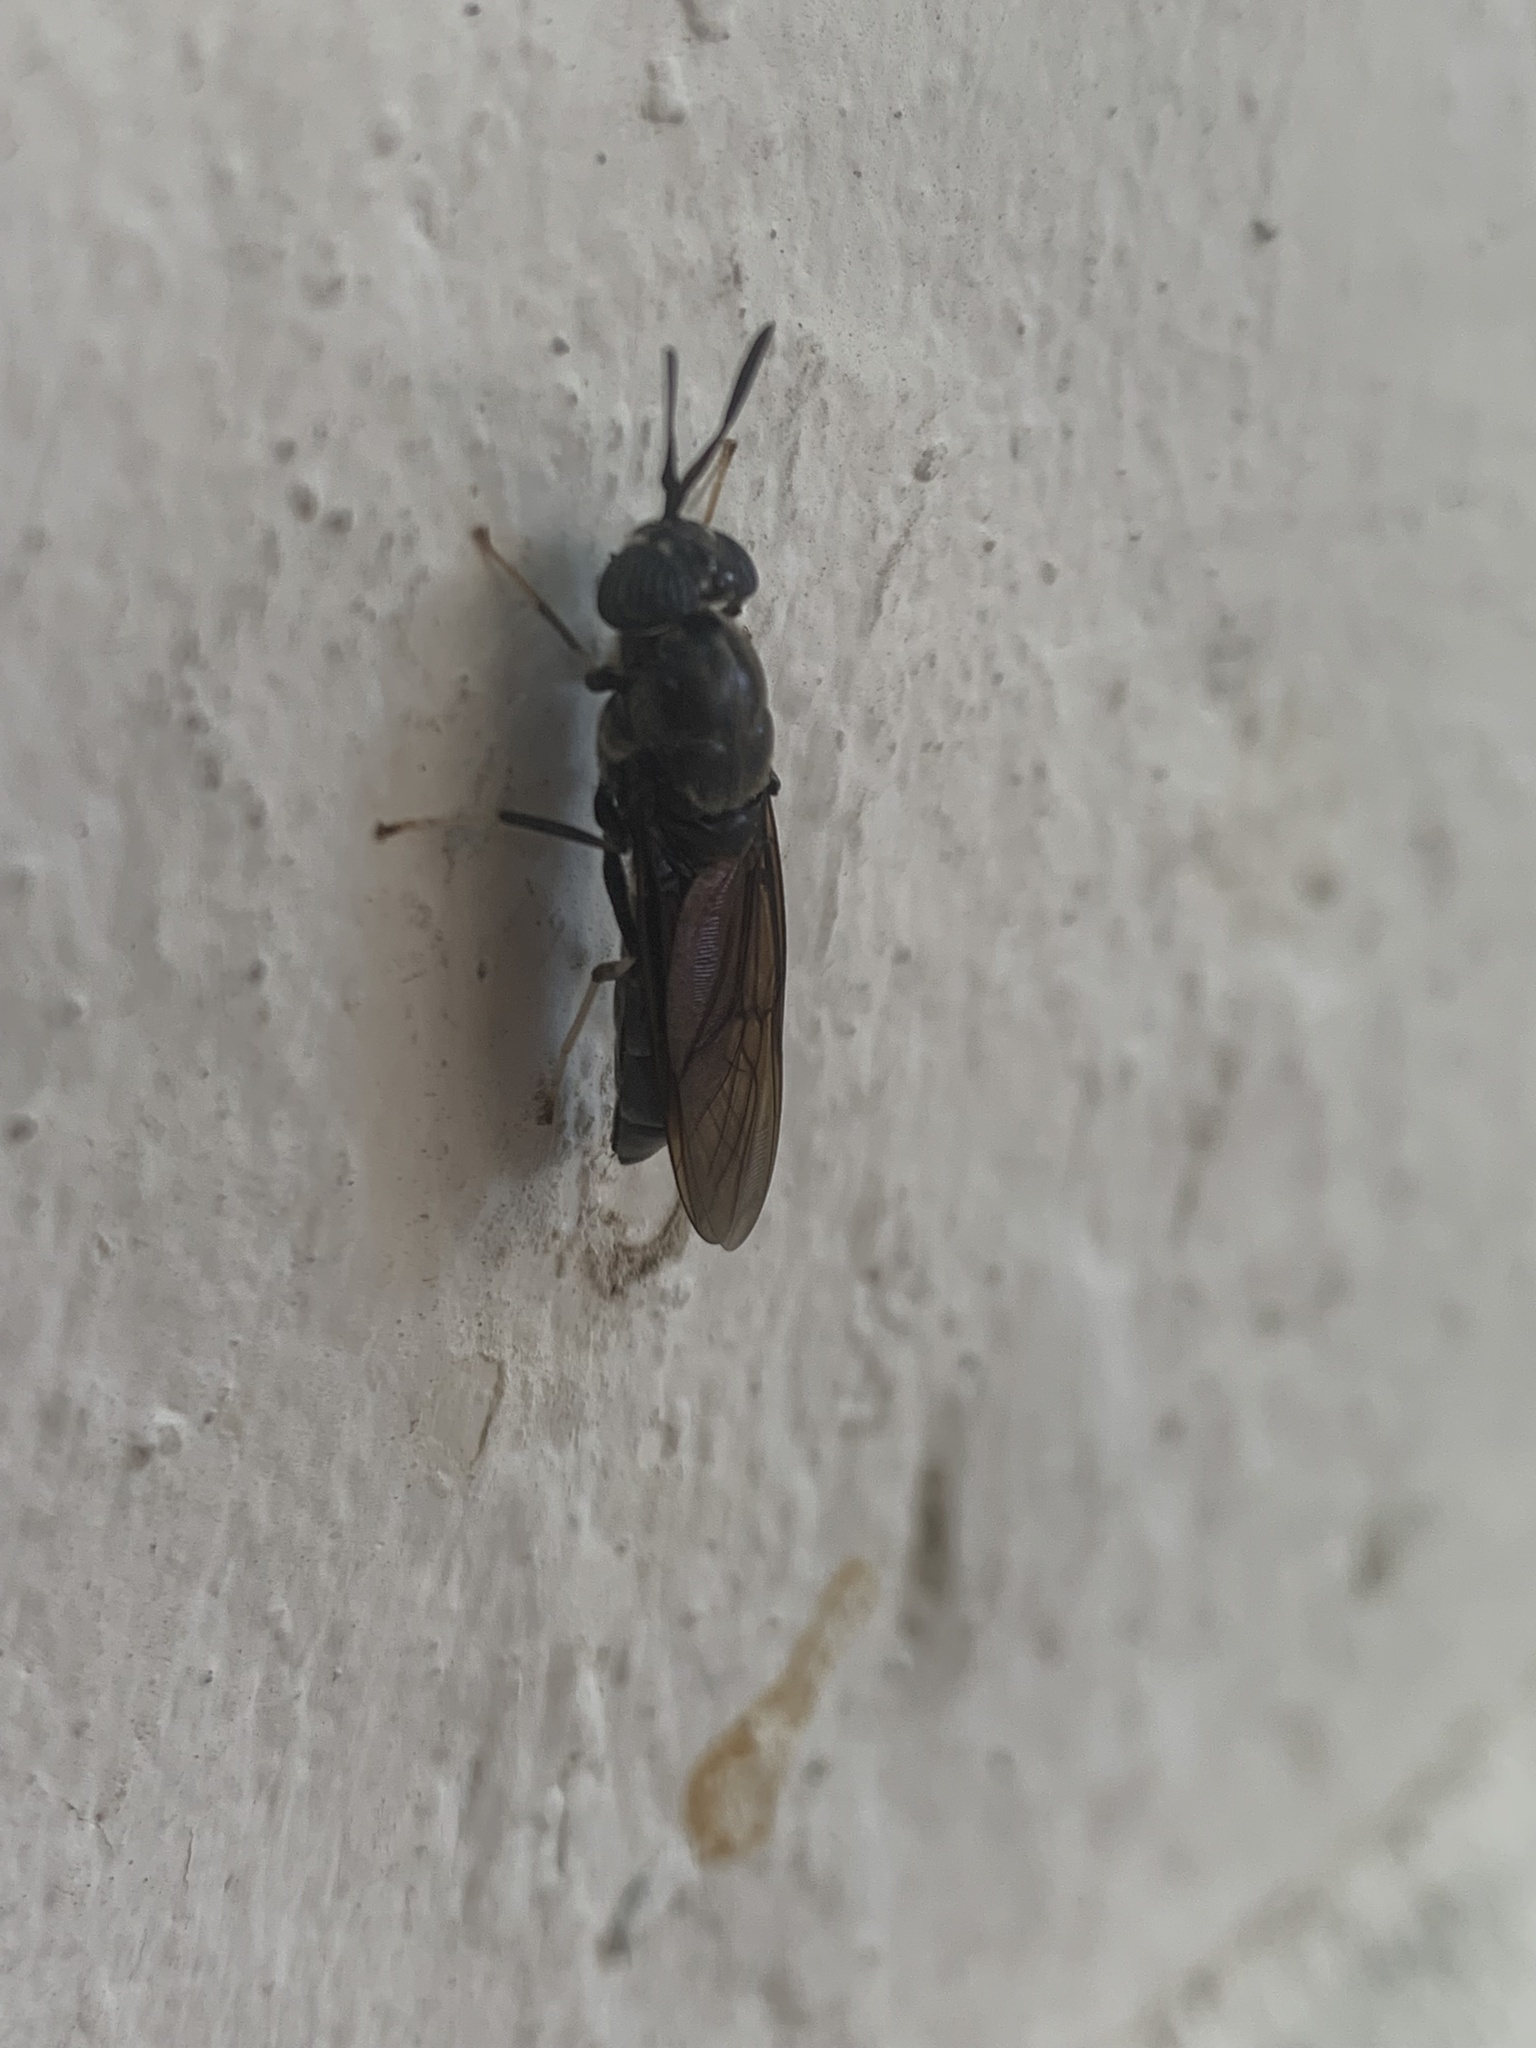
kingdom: Animalia
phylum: Arthropoda
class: Insecta
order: Diptera
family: Stratiomyidae
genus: Hermetia
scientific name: Hermetia illucens
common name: Black soldier fly
